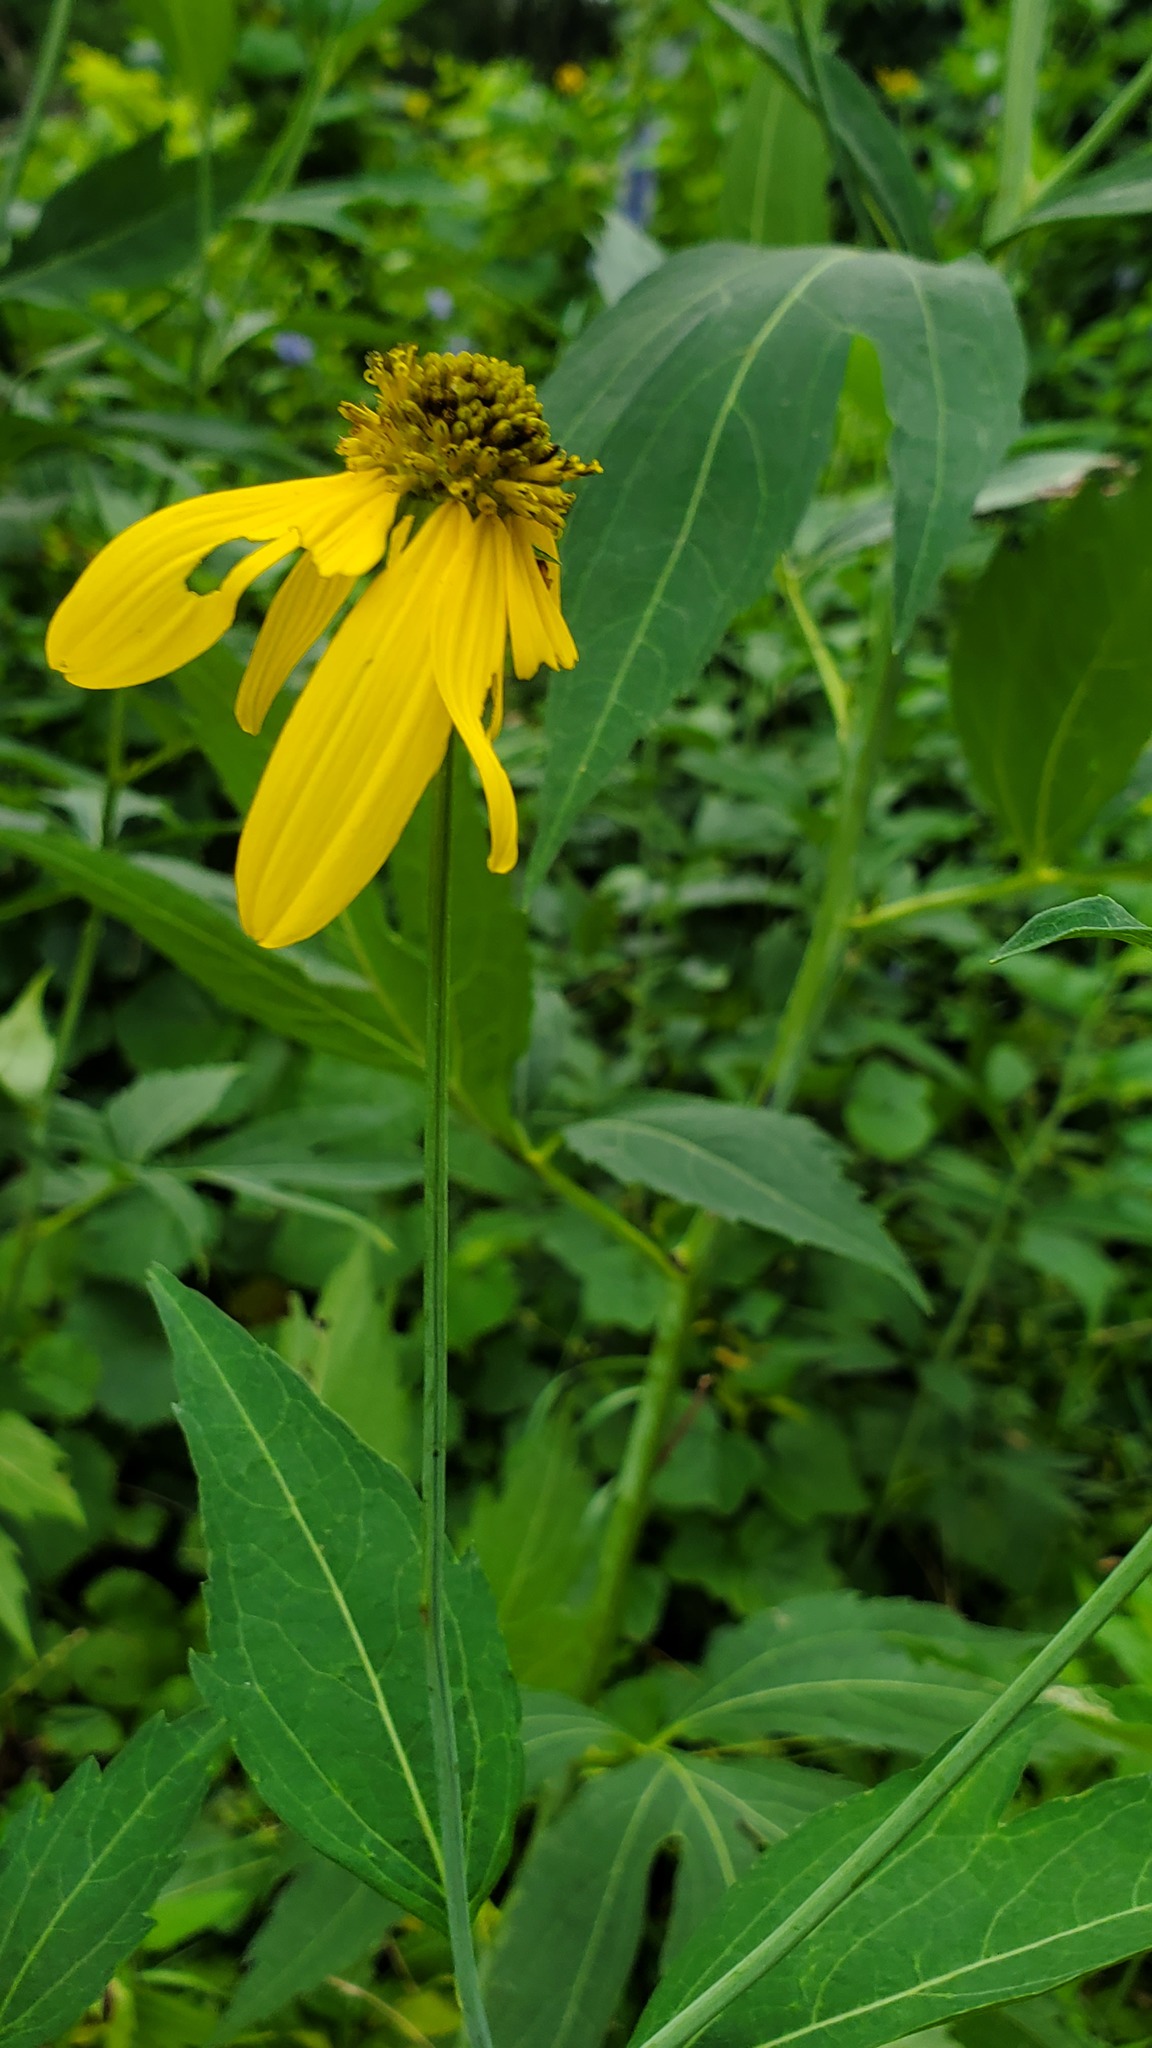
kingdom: Plantae
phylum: Tracheophyta
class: Magnoliopsida
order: Asterales
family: Asteraceae
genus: Rudbeckia
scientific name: Rudbeckia laciniata
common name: Coneflower
